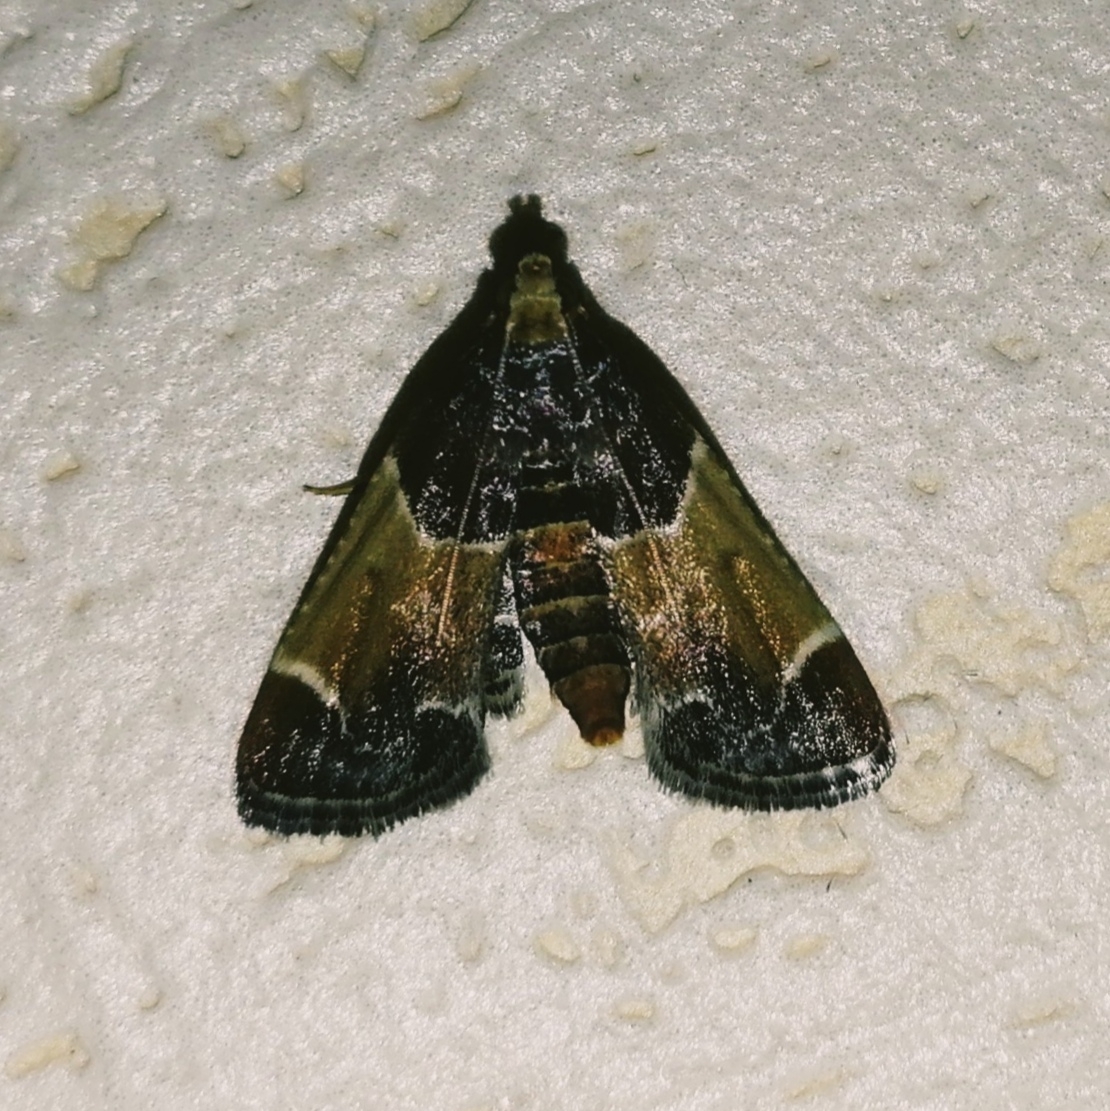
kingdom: Animalia
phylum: Arthropoda
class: Insecta
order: Lepidoptera
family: Pyralidae
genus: Pyralis
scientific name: Pyralis farinalis
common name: Meal moth
